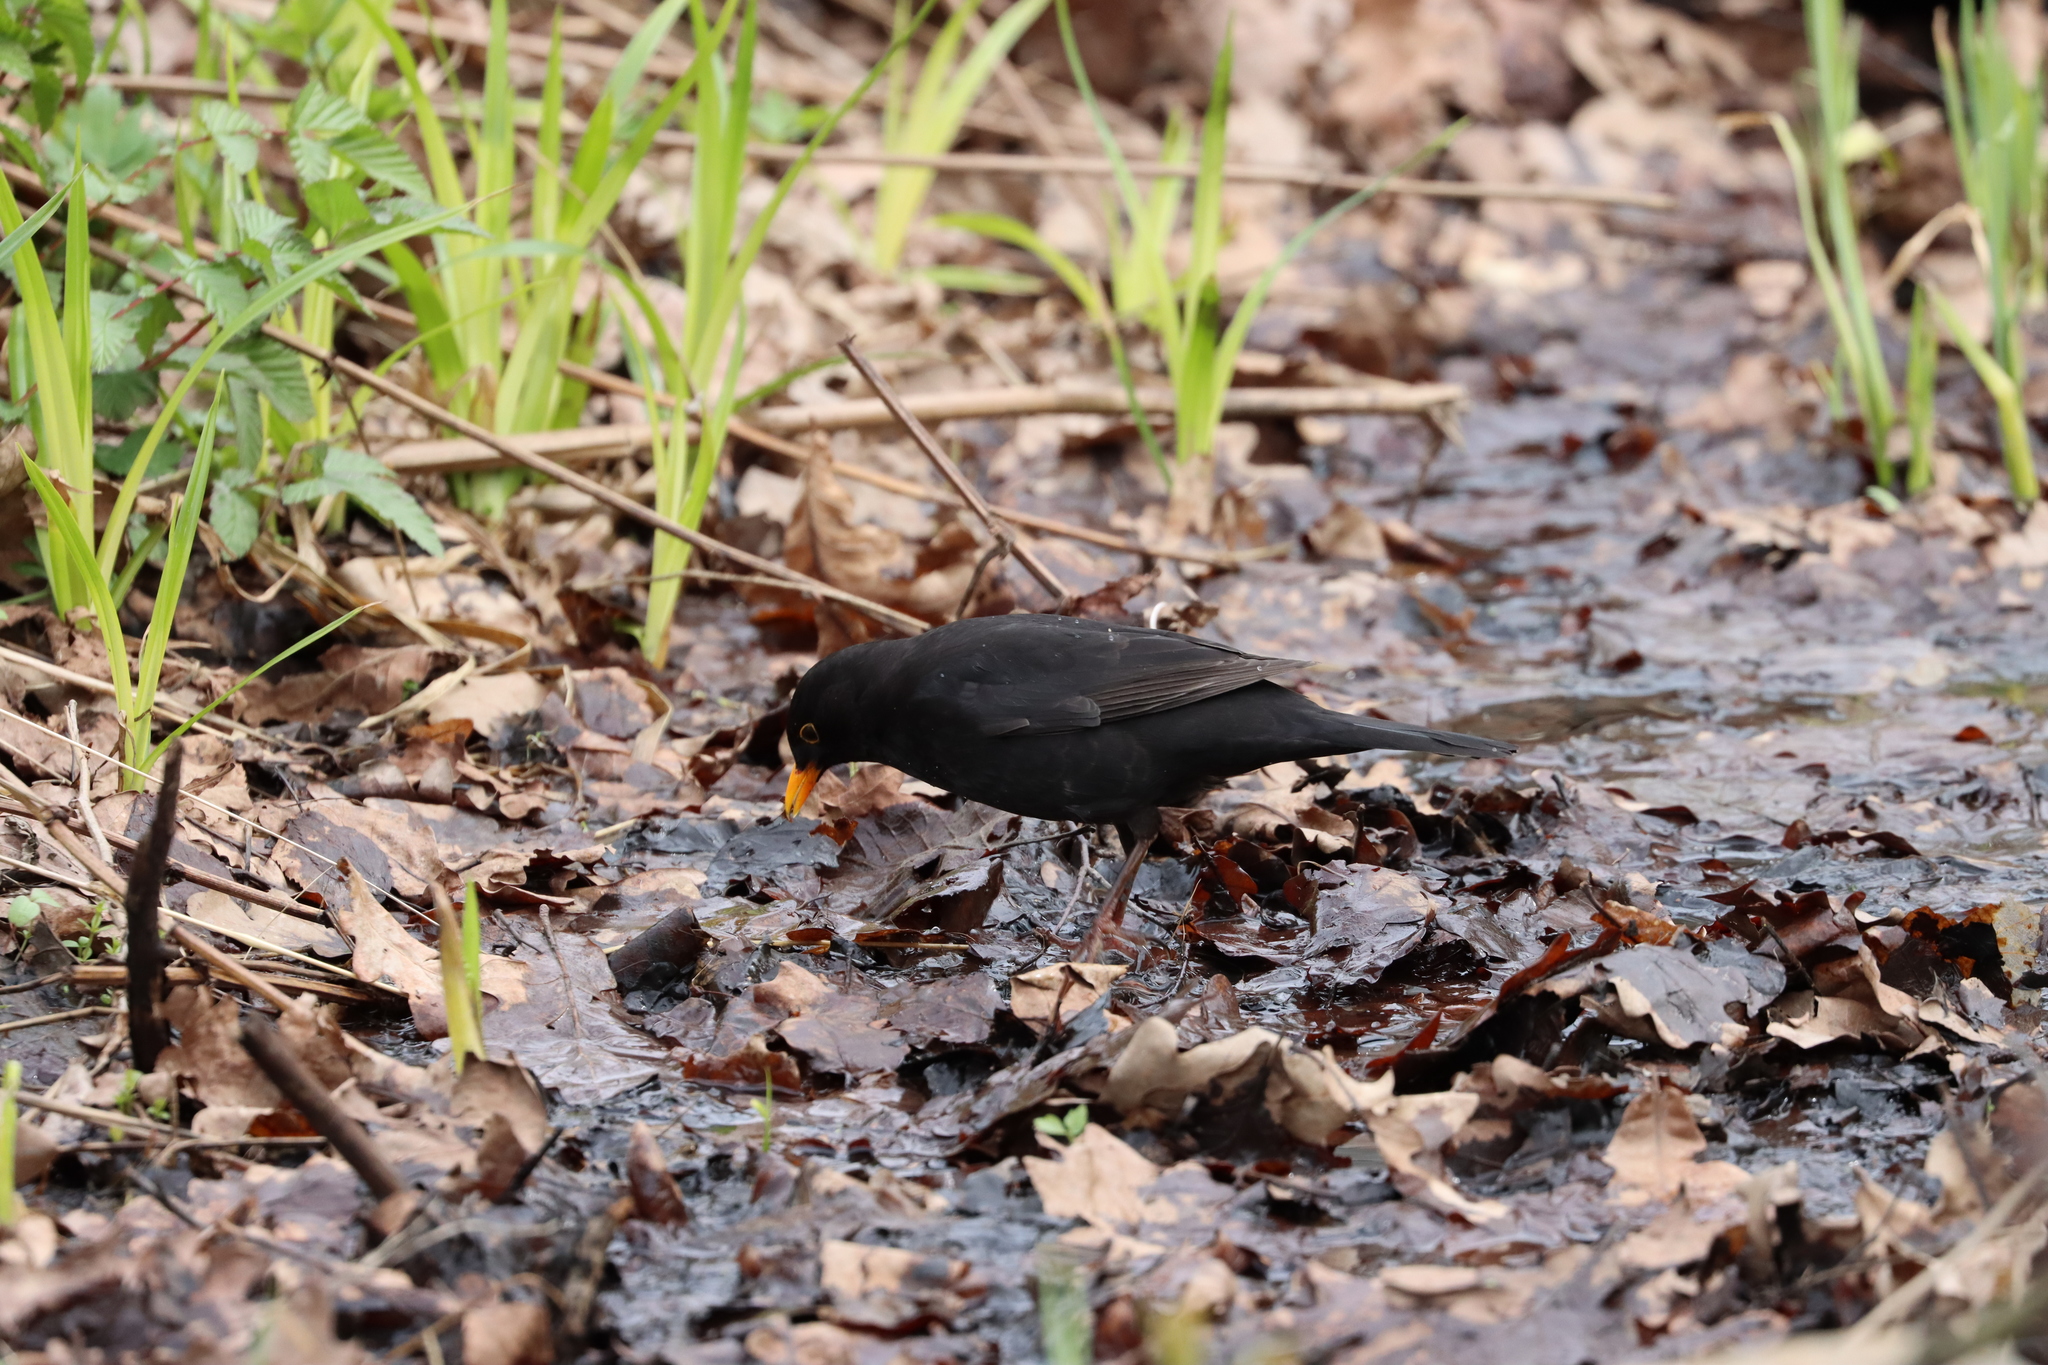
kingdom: Animalia
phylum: Chordata
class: Aves
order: Passeriformes
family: Turdidae
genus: Turdus
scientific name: Turdus merula
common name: Common blackbird
